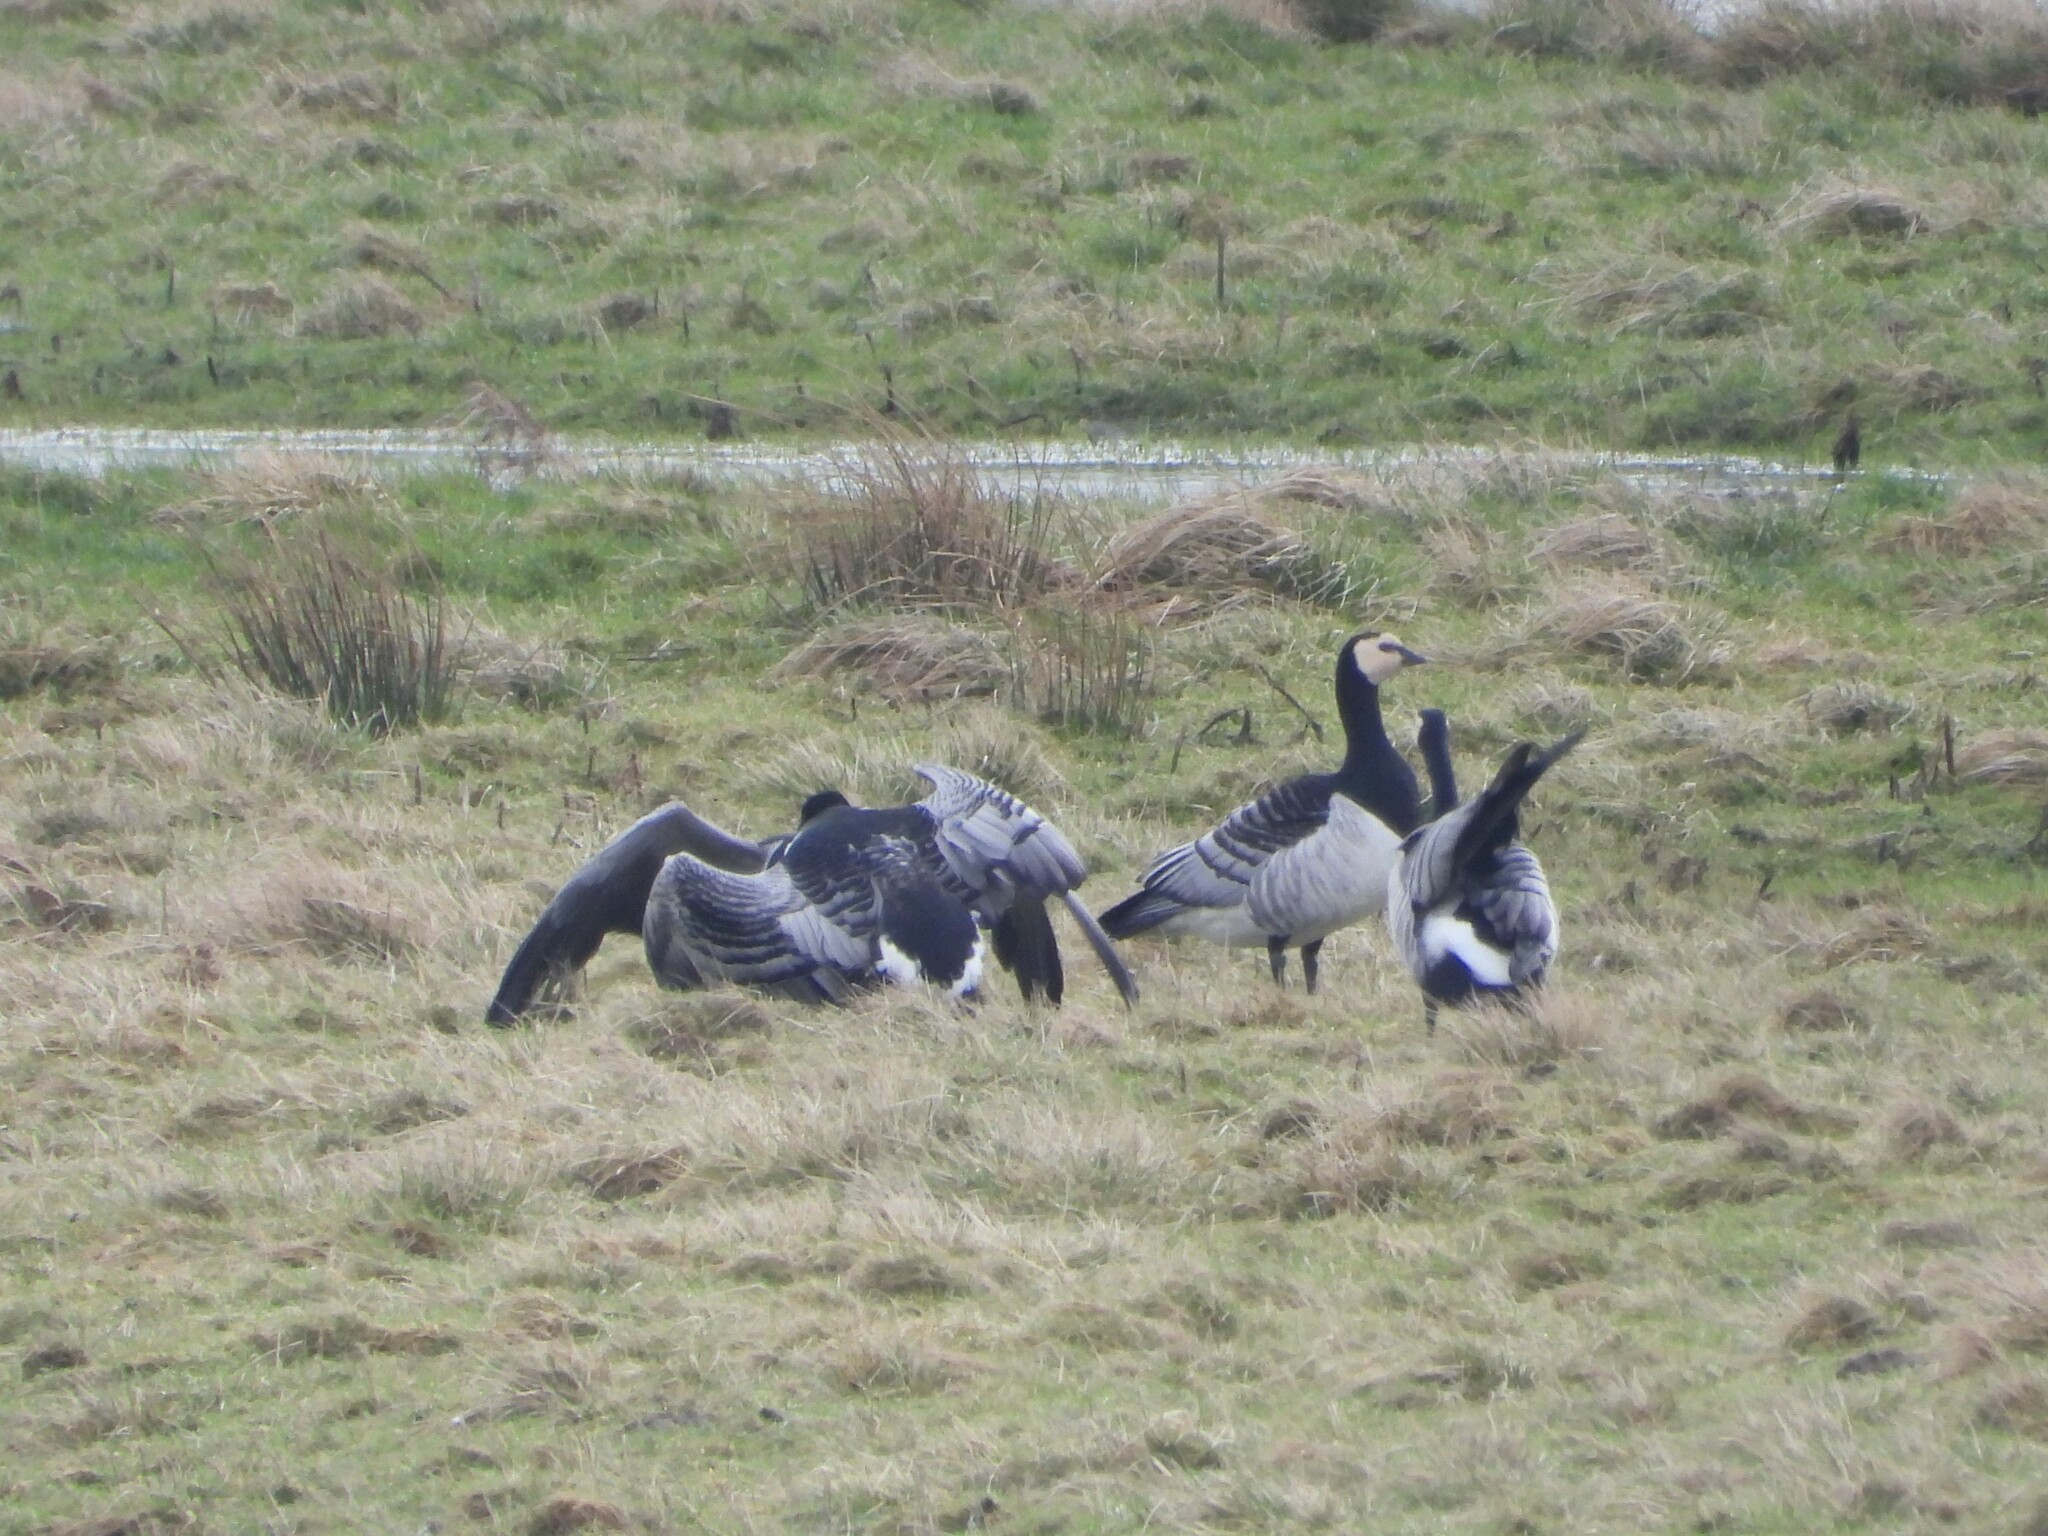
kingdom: Animalia
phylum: Chordata
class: Aves
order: Anseriformes
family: Anatidae
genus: Branta
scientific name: Branta leucopsis
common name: Barnacle goose
